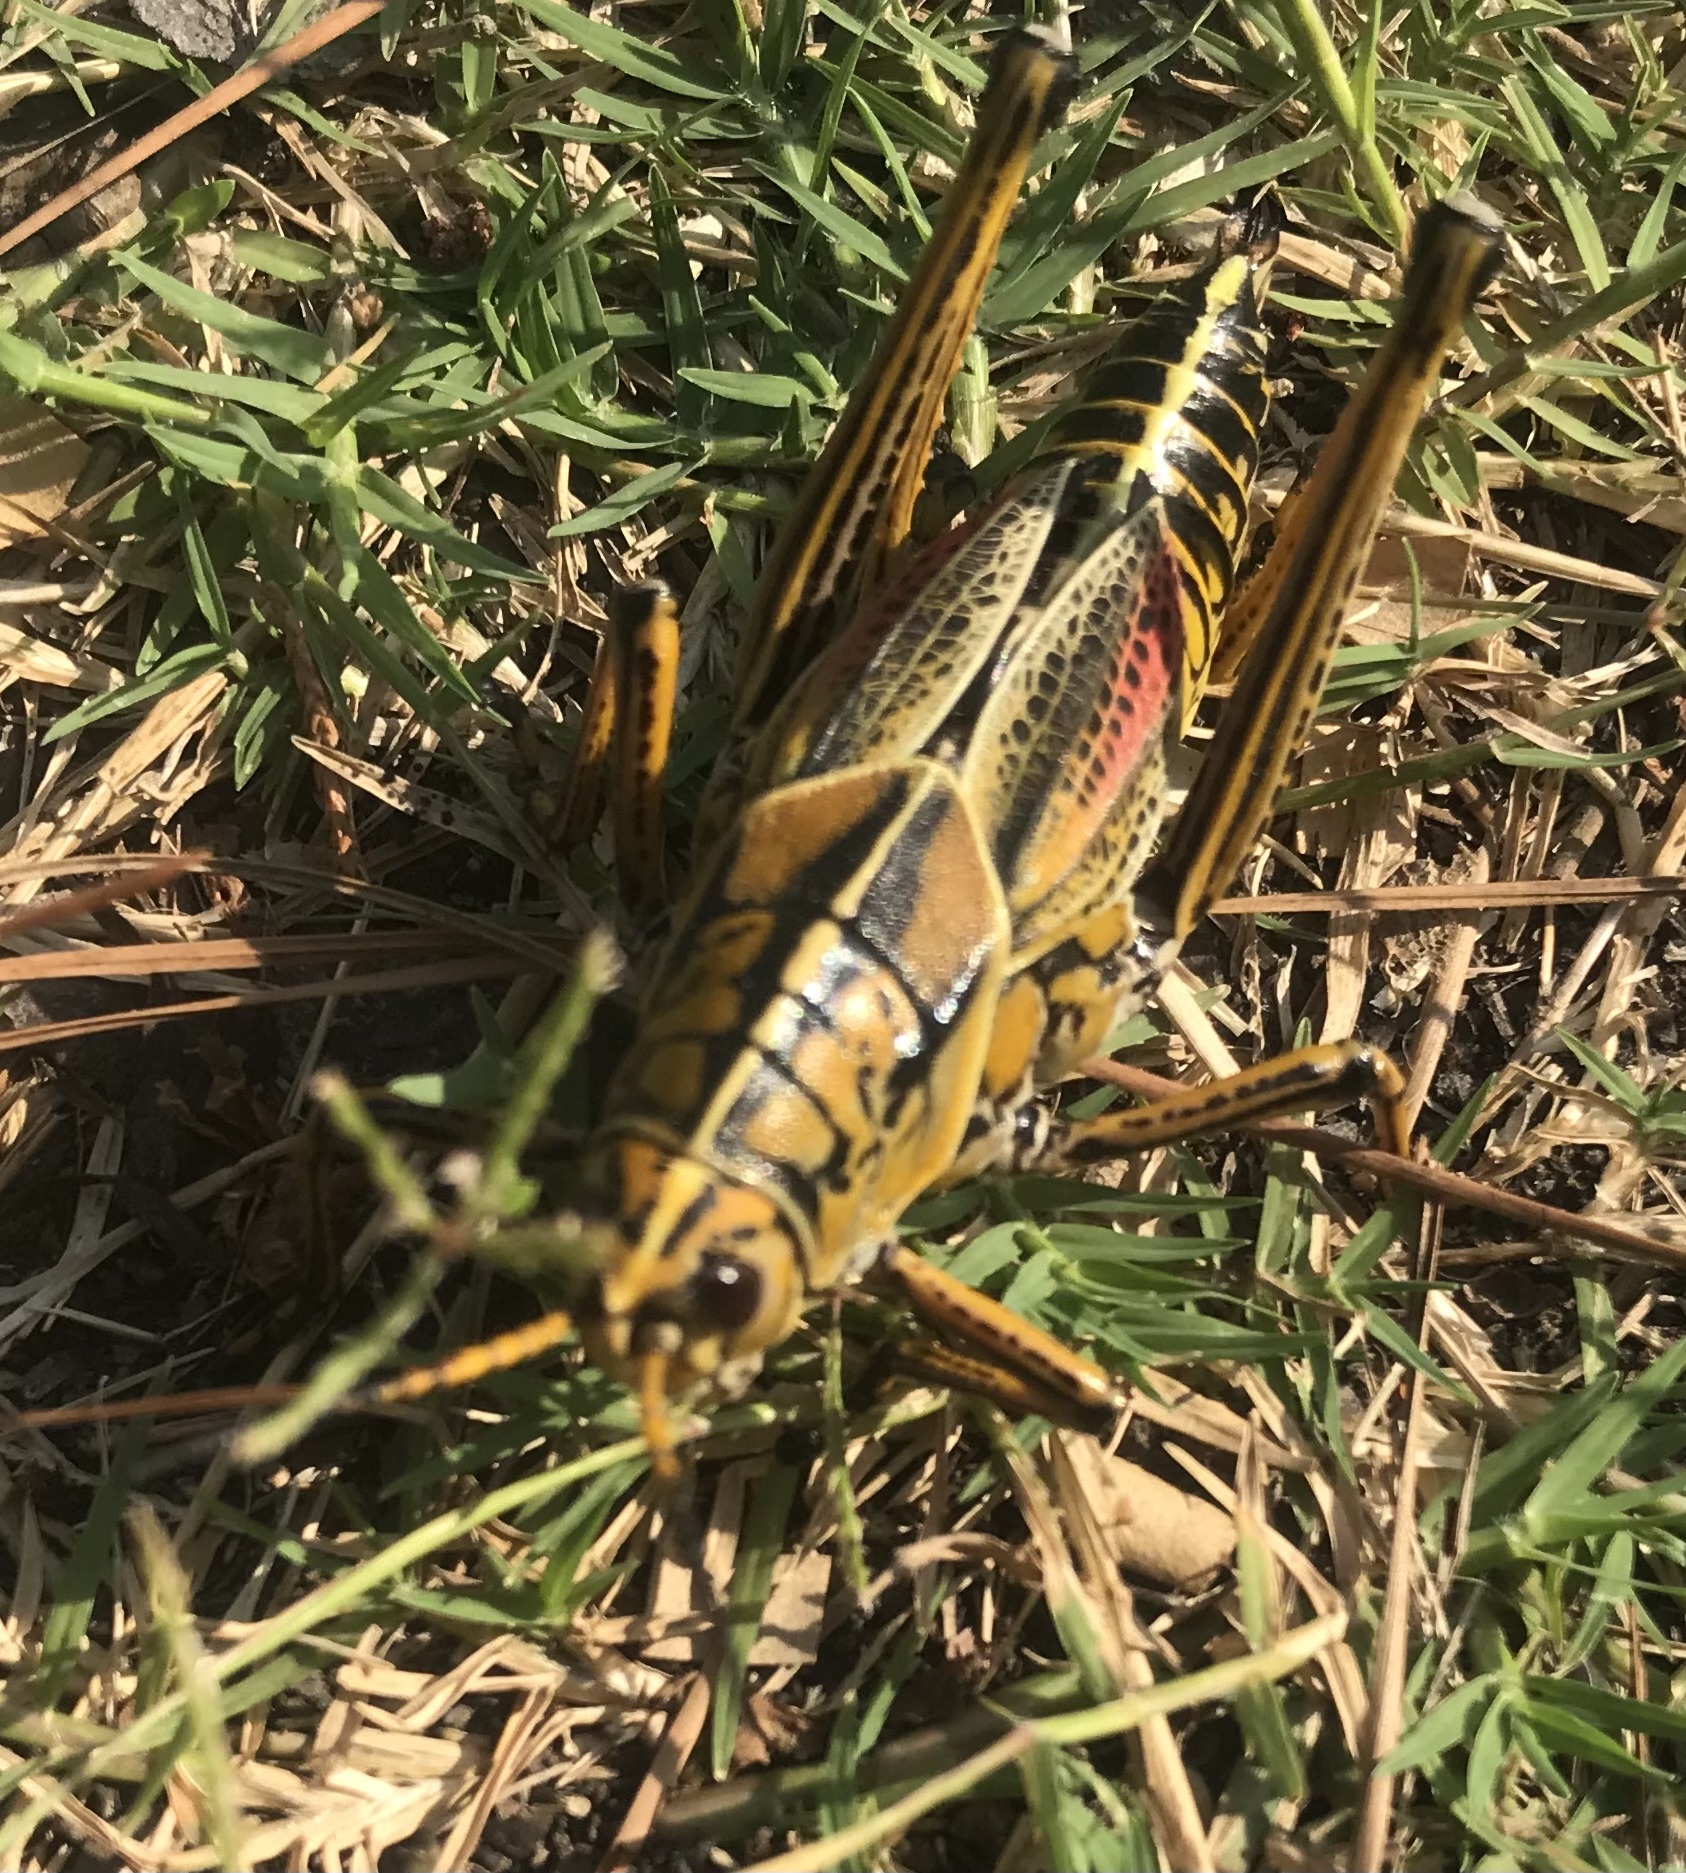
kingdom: Animalia
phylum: Arthropoda
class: Insecta
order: Orthoptera
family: Romaleidae
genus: Romalea
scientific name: Romalea microptera
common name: Eastern lubber grasshopper
